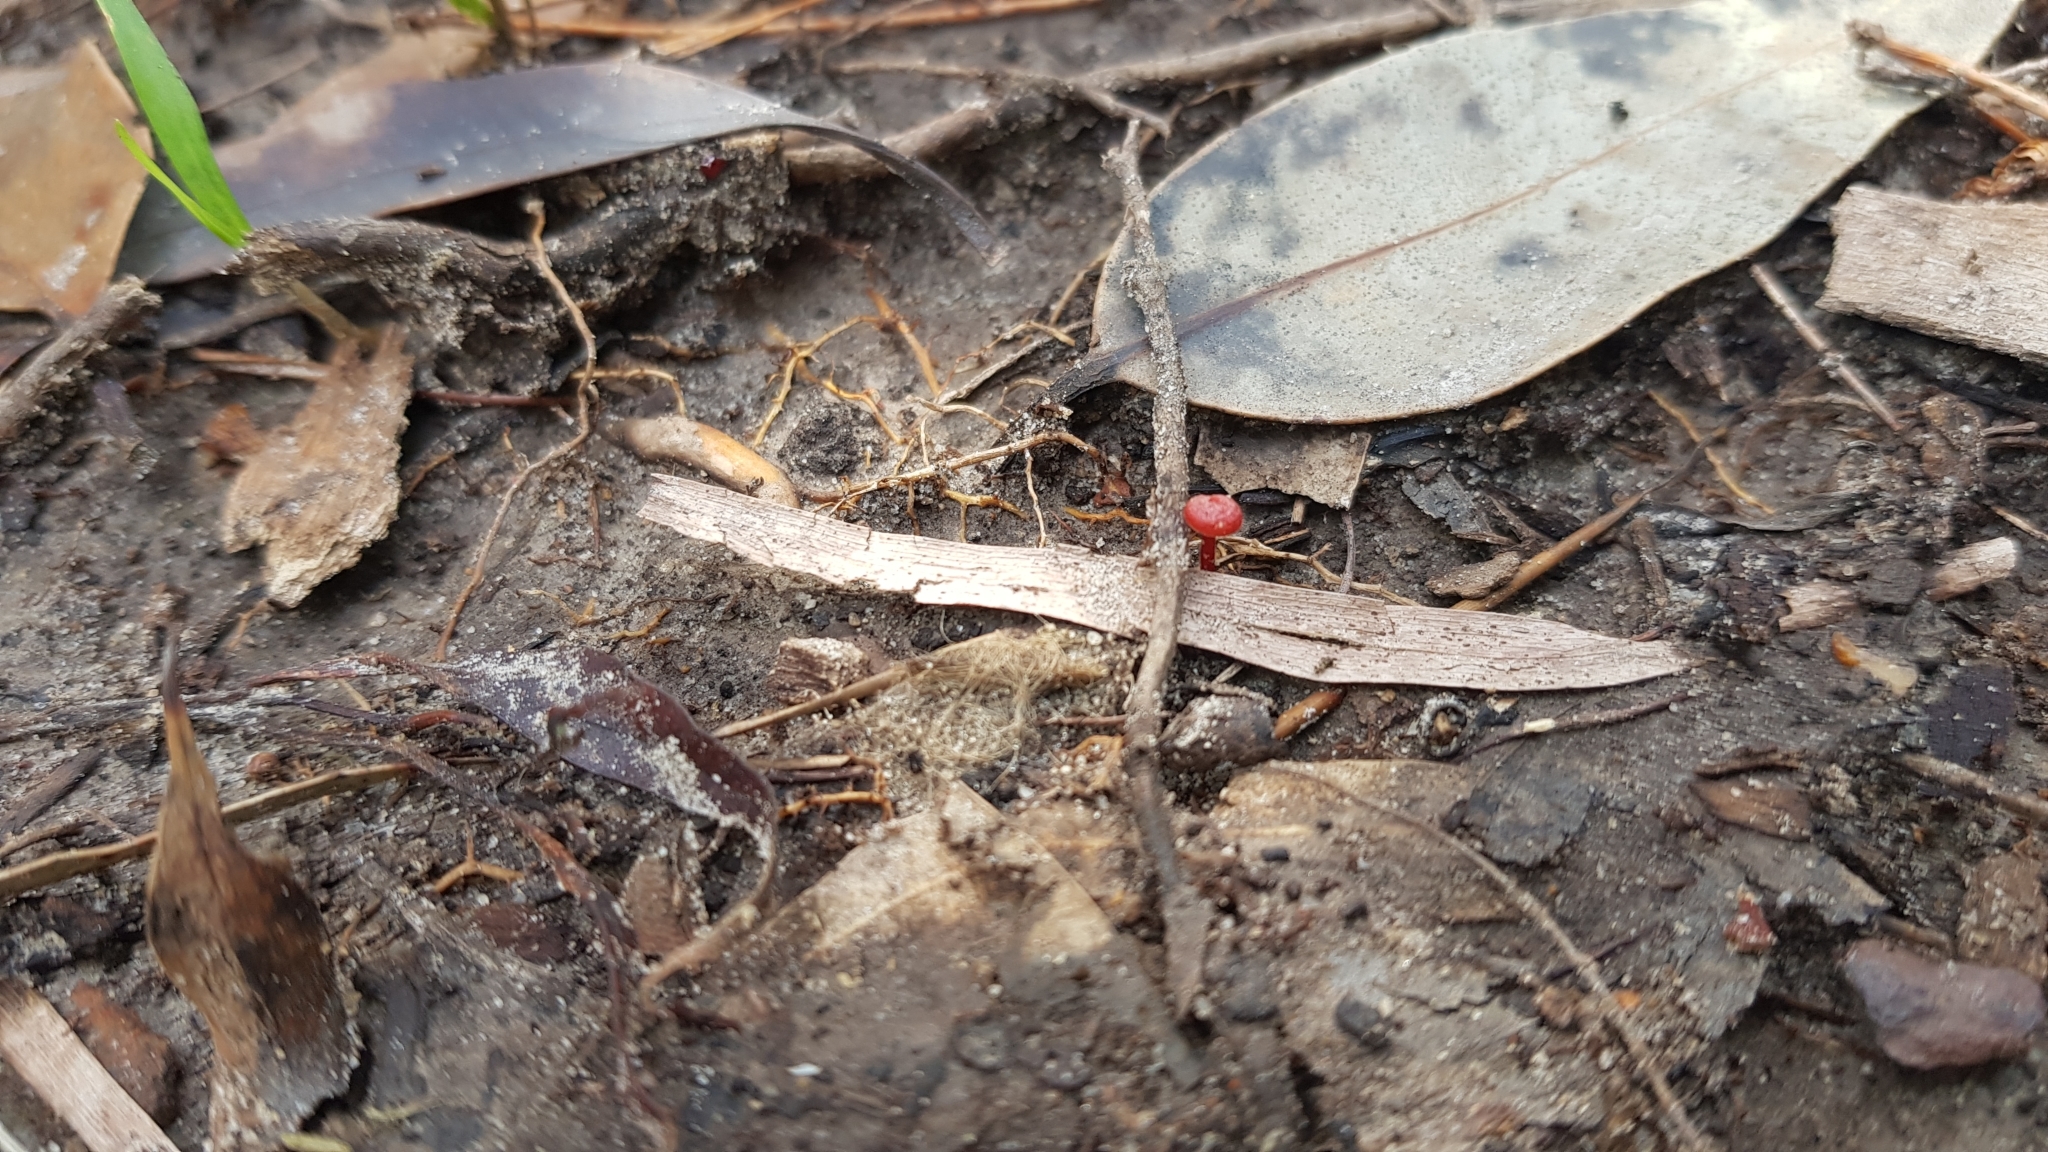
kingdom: Fungi
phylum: Basidiomycota
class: Agaricomycetes
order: Agaricales
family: Mycenaceae
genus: Cruentomycena
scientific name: Cruentomycena viscidocruenta
